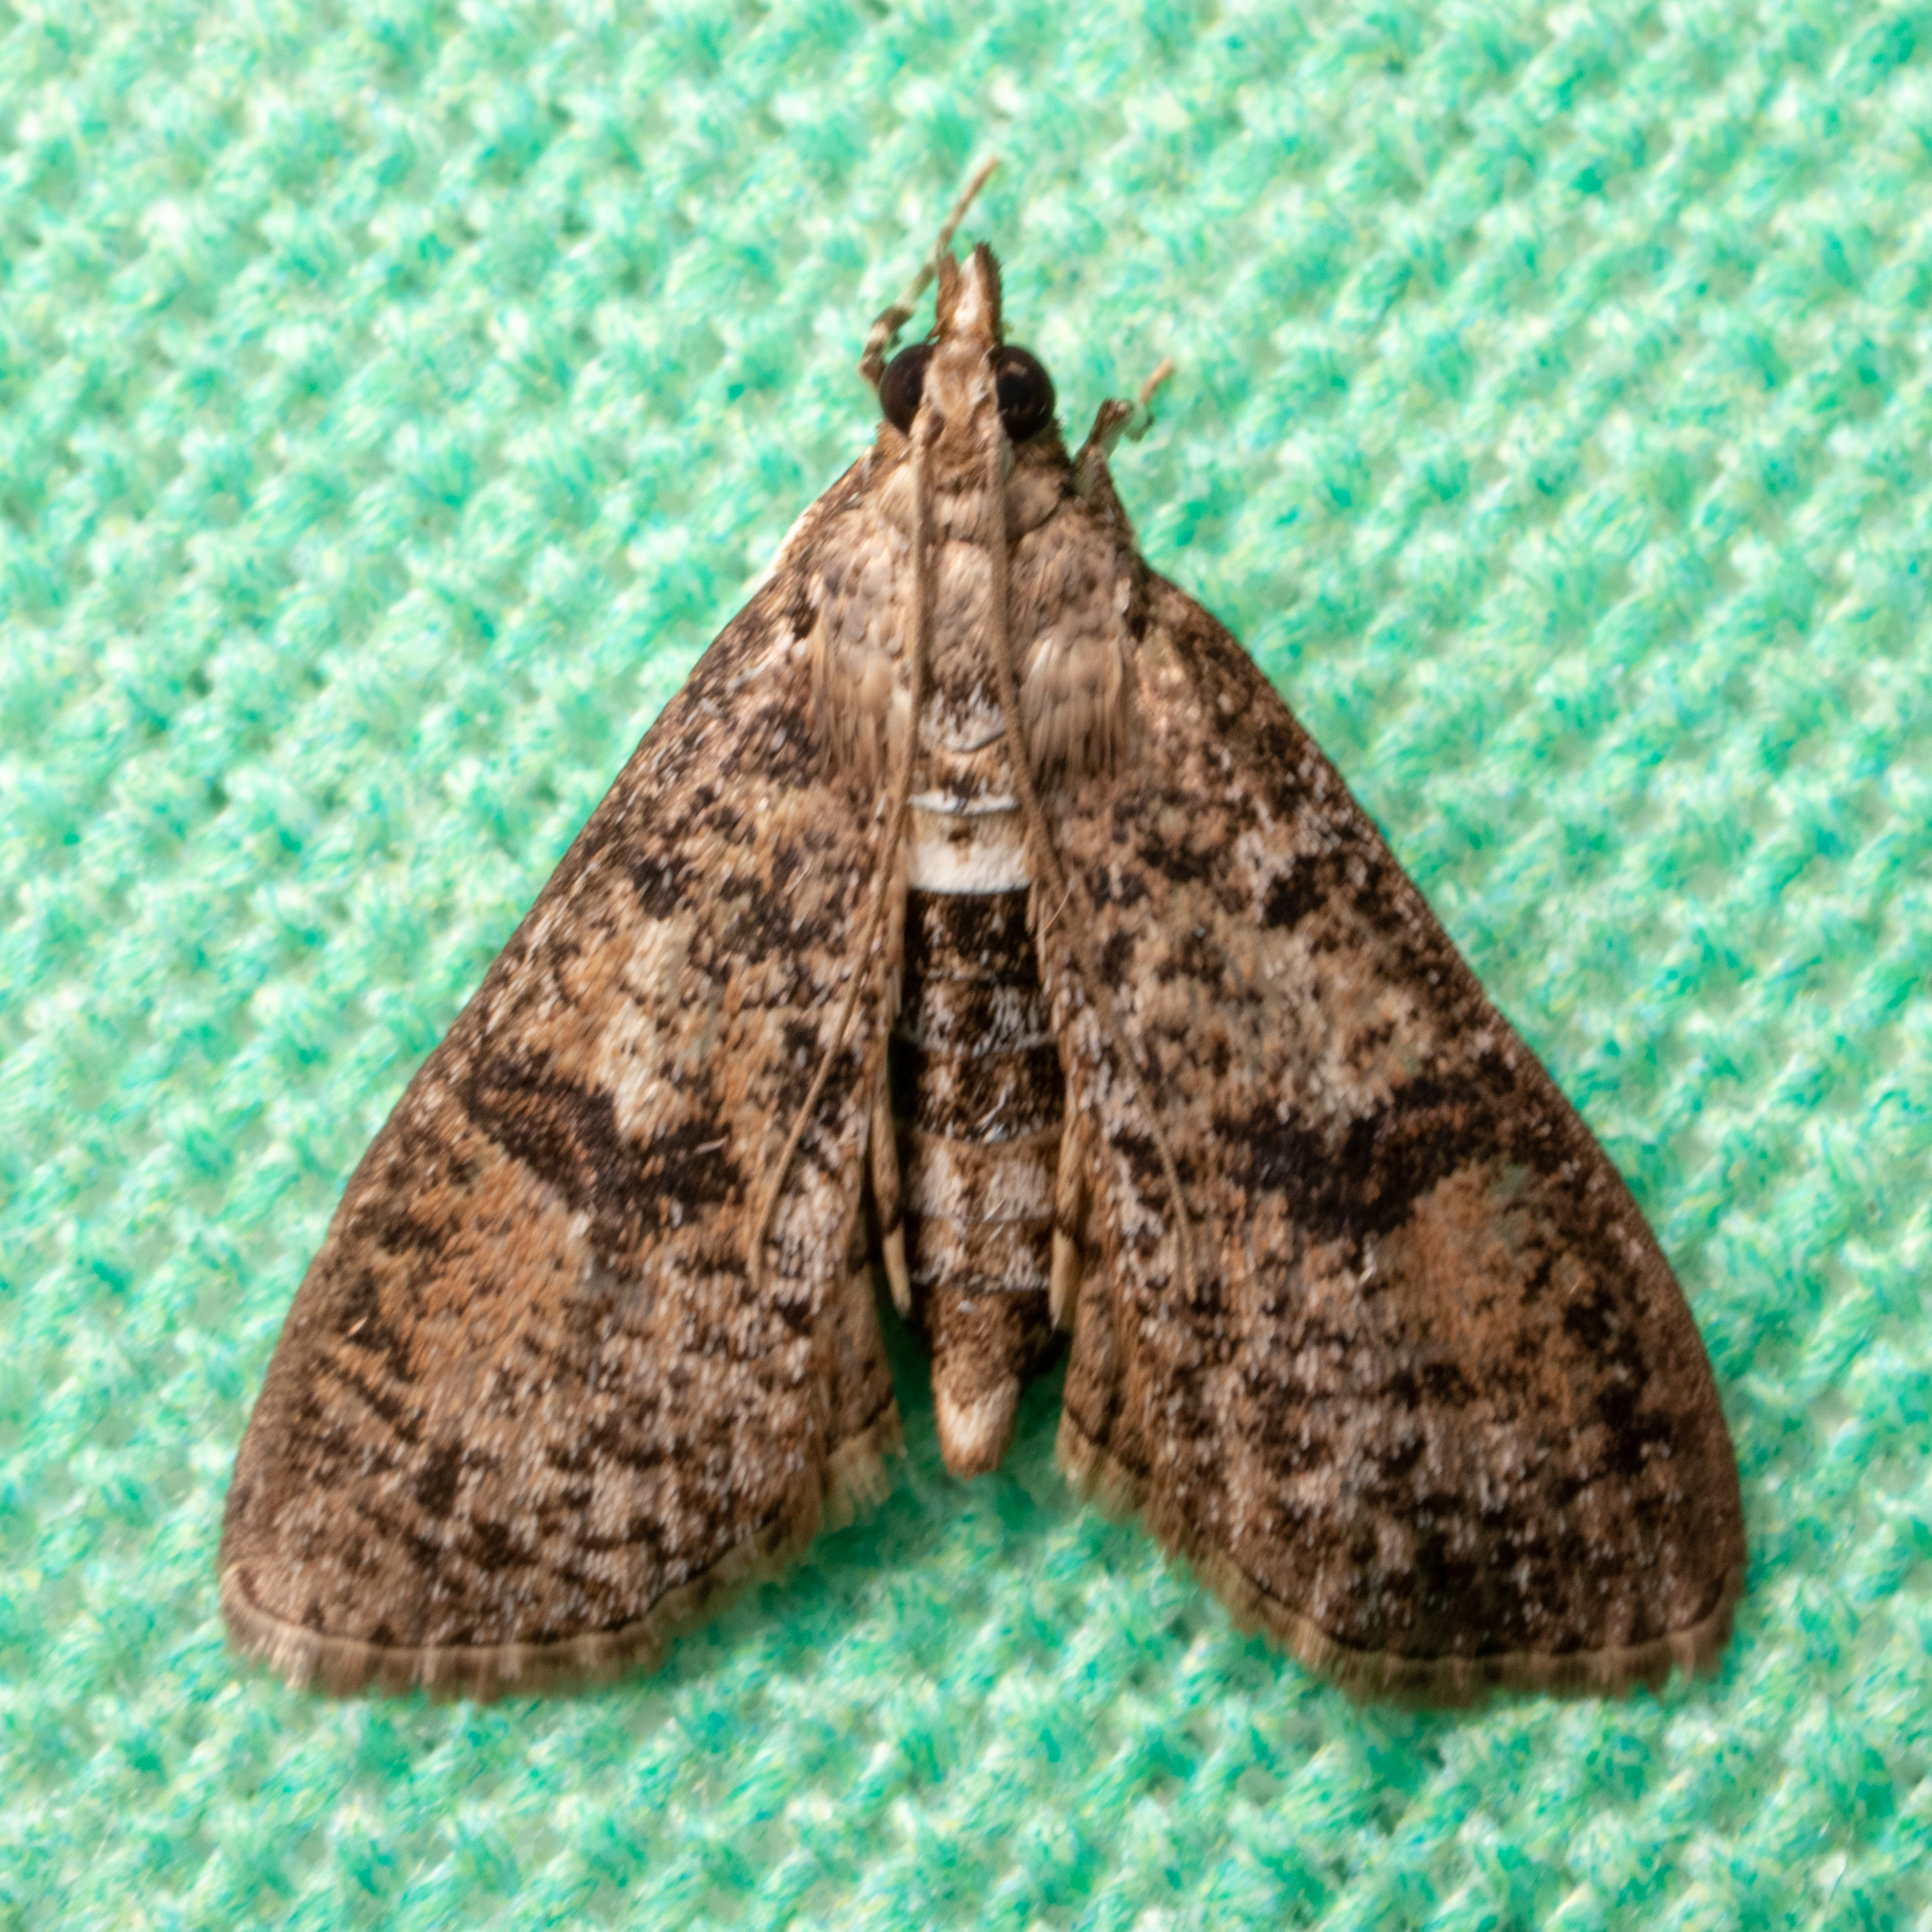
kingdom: Animalia
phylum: Arthropoda
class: Insecta
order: Lepidoptera
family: Crambidae
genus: Palpita
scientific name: Palpita freemanalis
